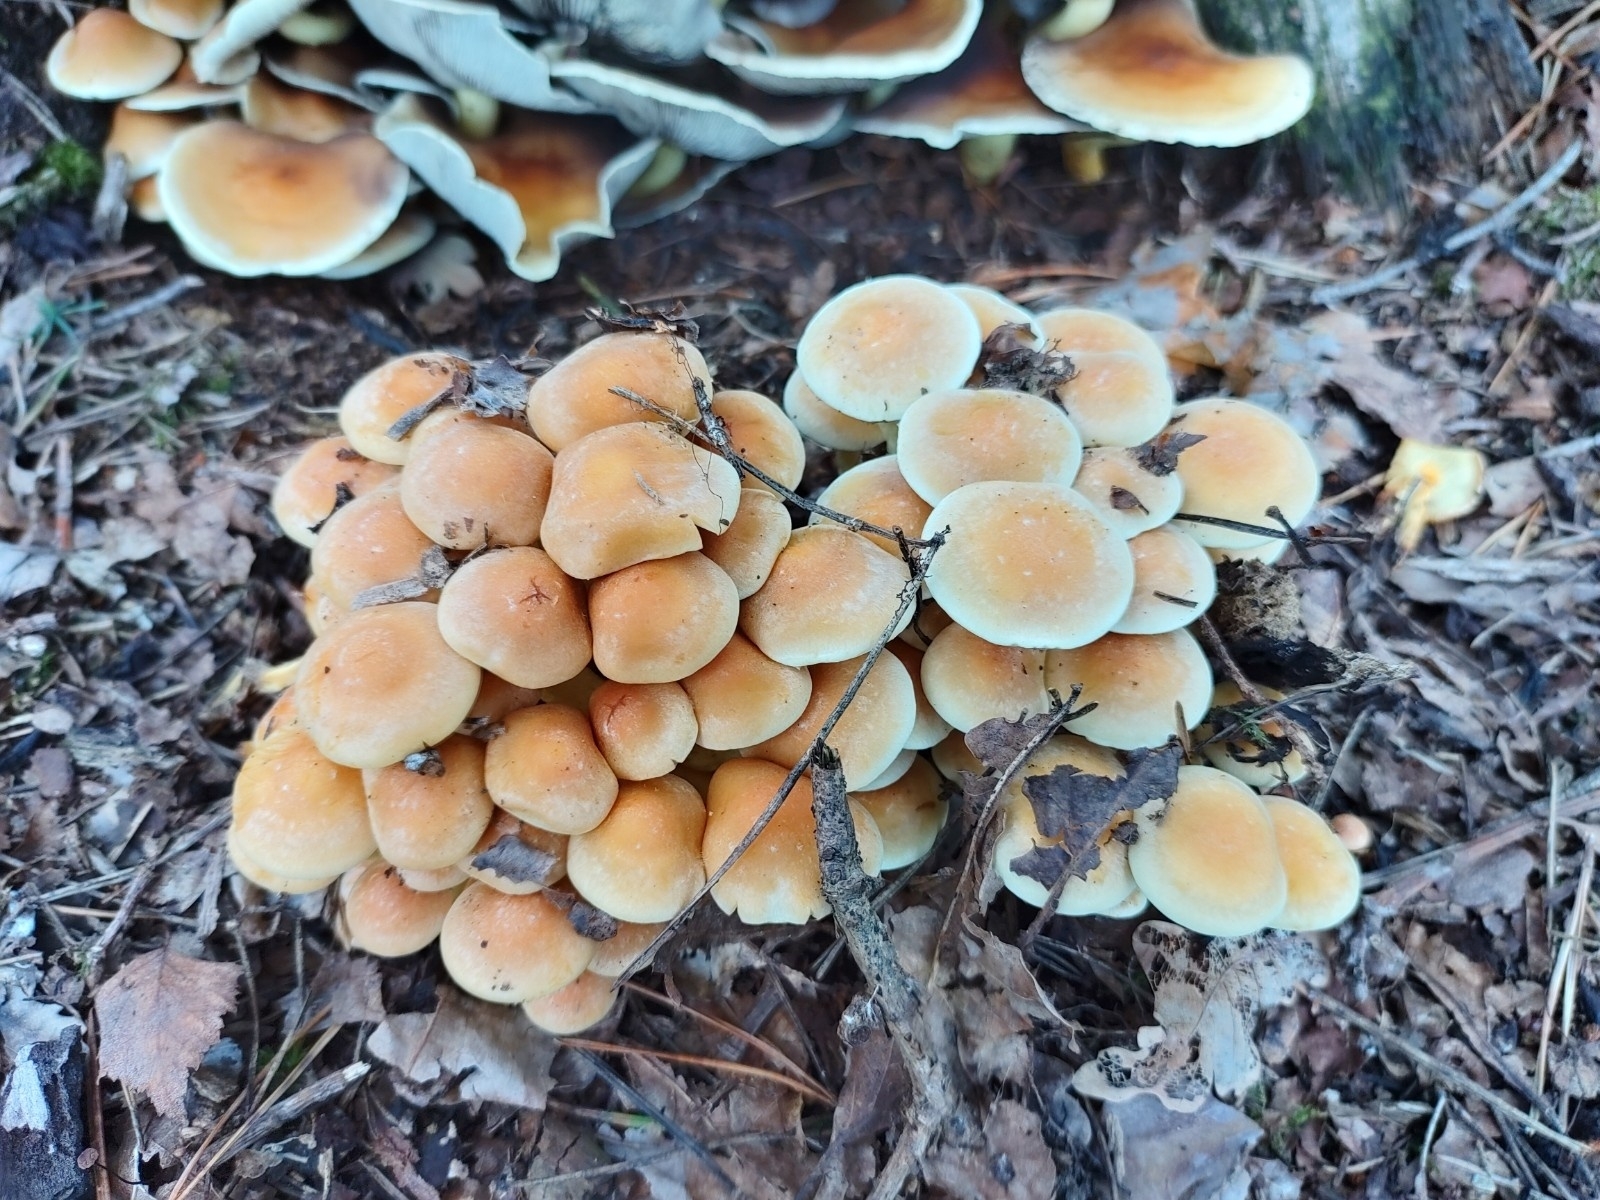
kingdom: Fungi
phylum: Basidiomycota
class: Agaricomycetes
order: Agaricales
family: Strophariaceae
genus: Hypholoma
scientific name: Hypholoma fasciculare
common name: Sulphur tuft
